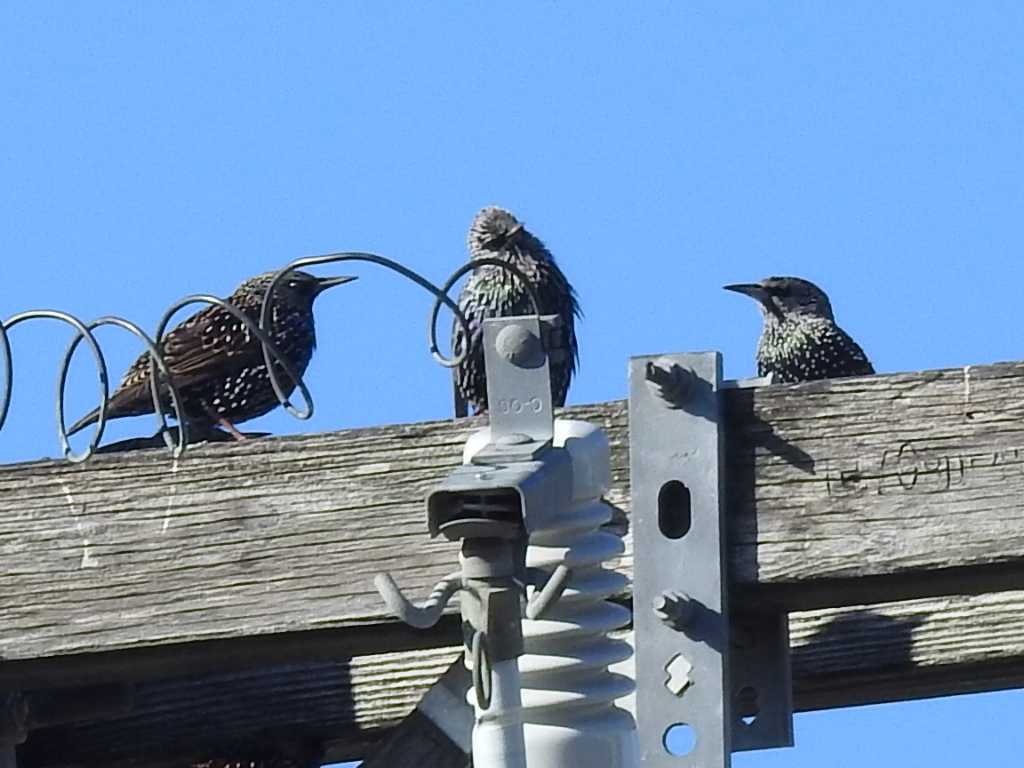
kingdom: Animalia
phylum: Chordata
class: Aves
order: Passeriformes
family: Sturnidae
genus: Sturnus
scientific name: Sturnus vulgaris
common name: Common starling
